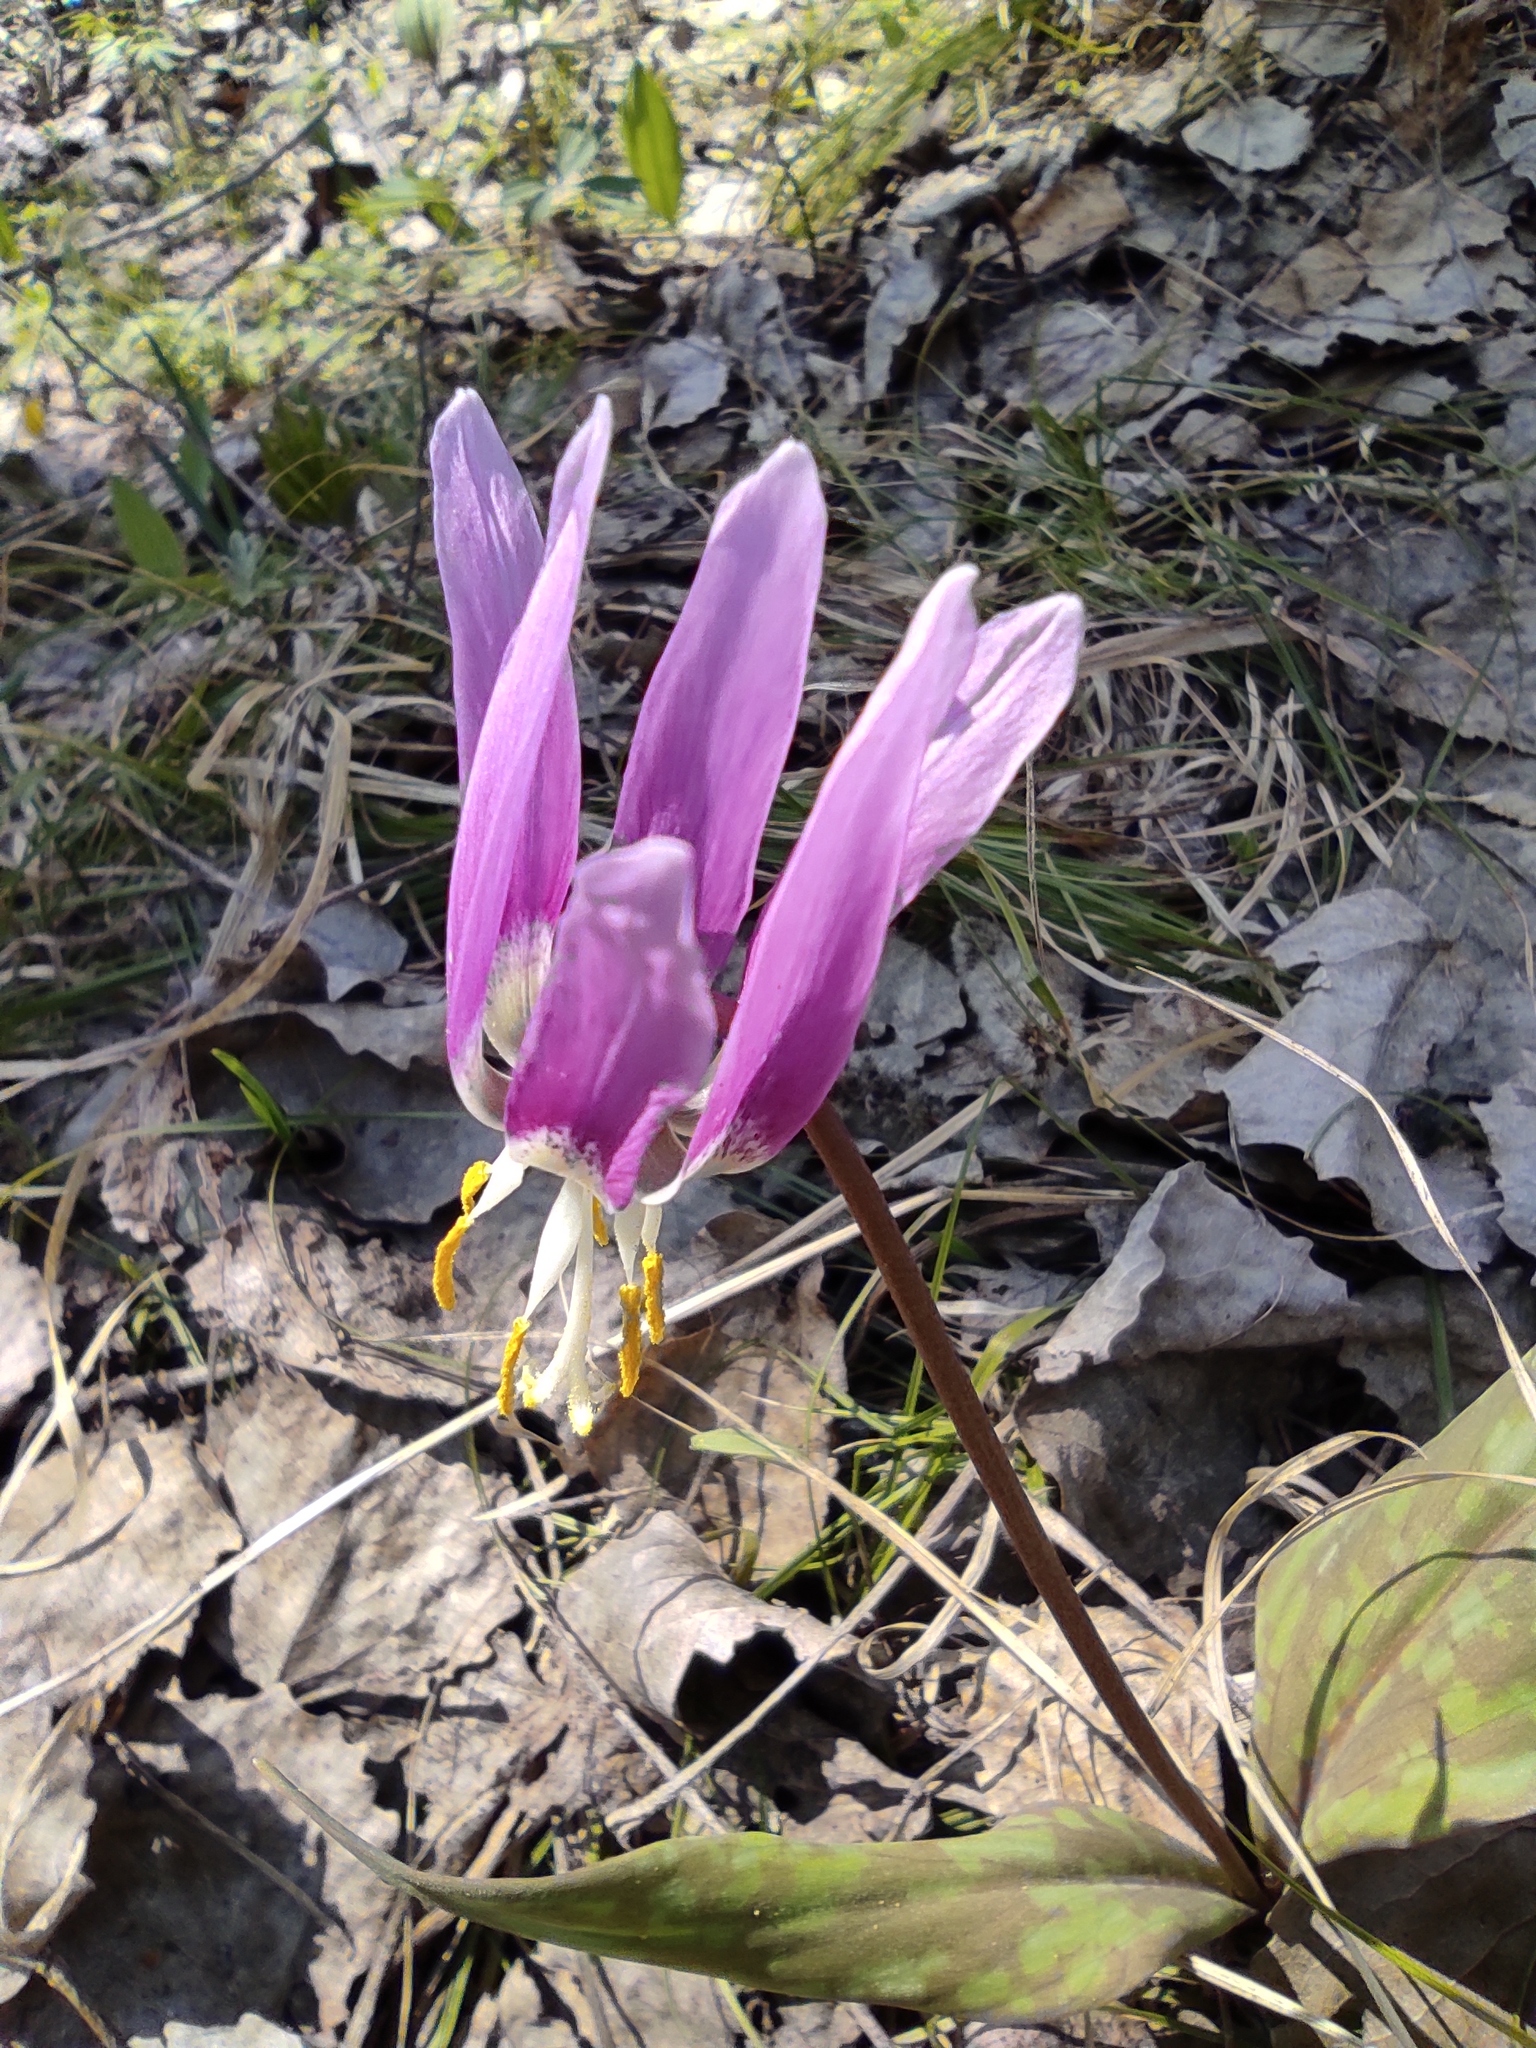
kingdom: Plantae
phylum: Tracheophyta
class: Liliopsida
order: Liliales
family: Liliaceae
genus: Erythronium
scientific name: Erythronium sibiricum
